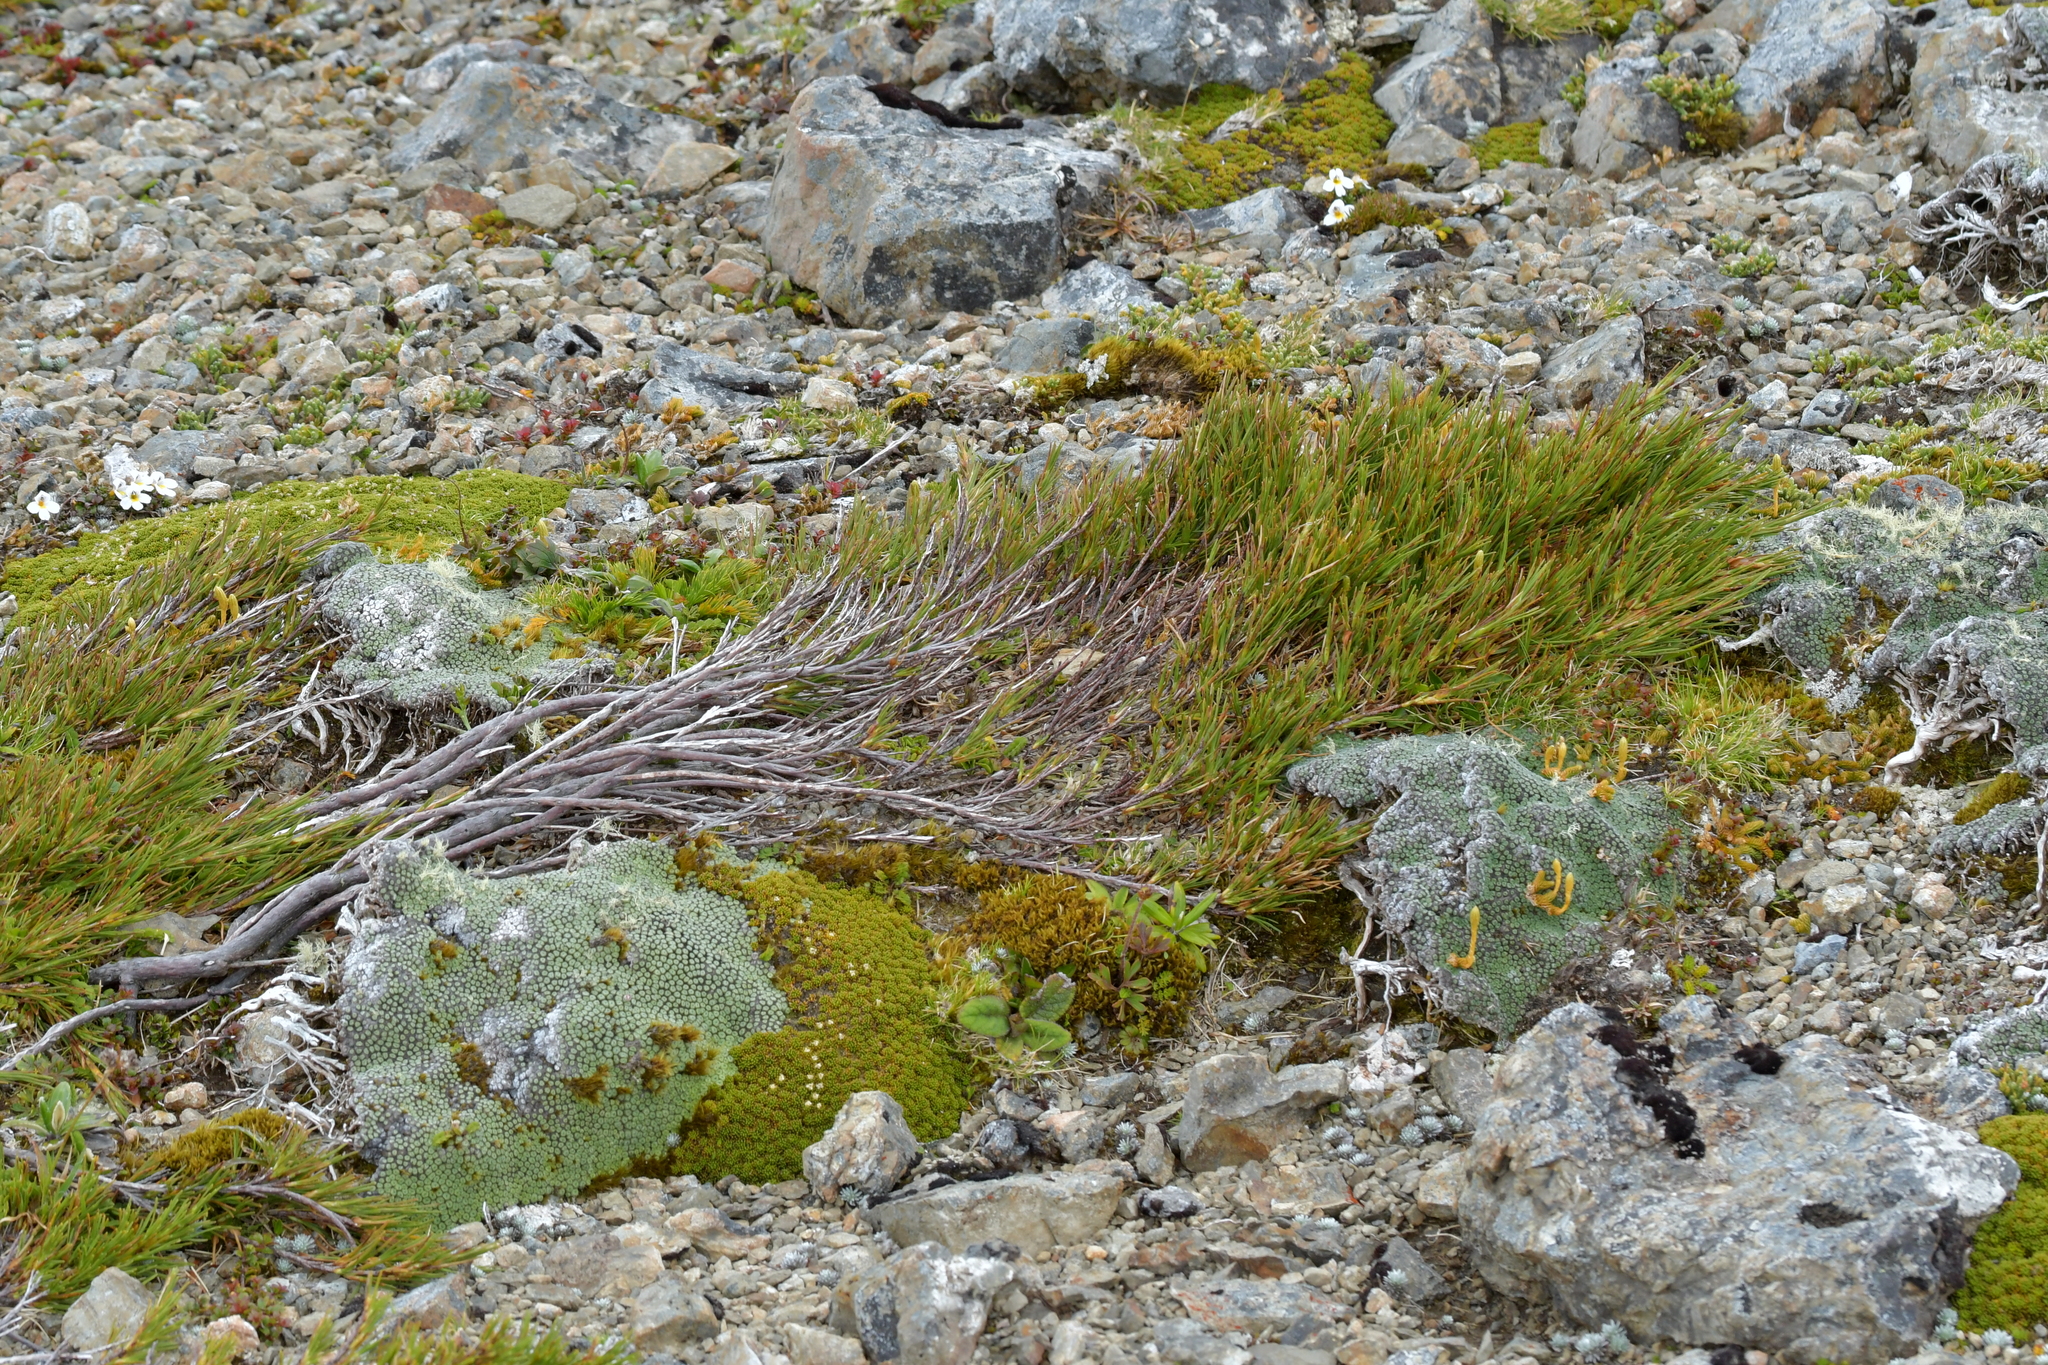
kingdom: Plantae
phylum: Tracheophyta
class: Magnoliopsida
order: Ericales
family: Ericaceae
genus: Dracophyllum
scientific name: Dracophyllum rosmarinifolium
